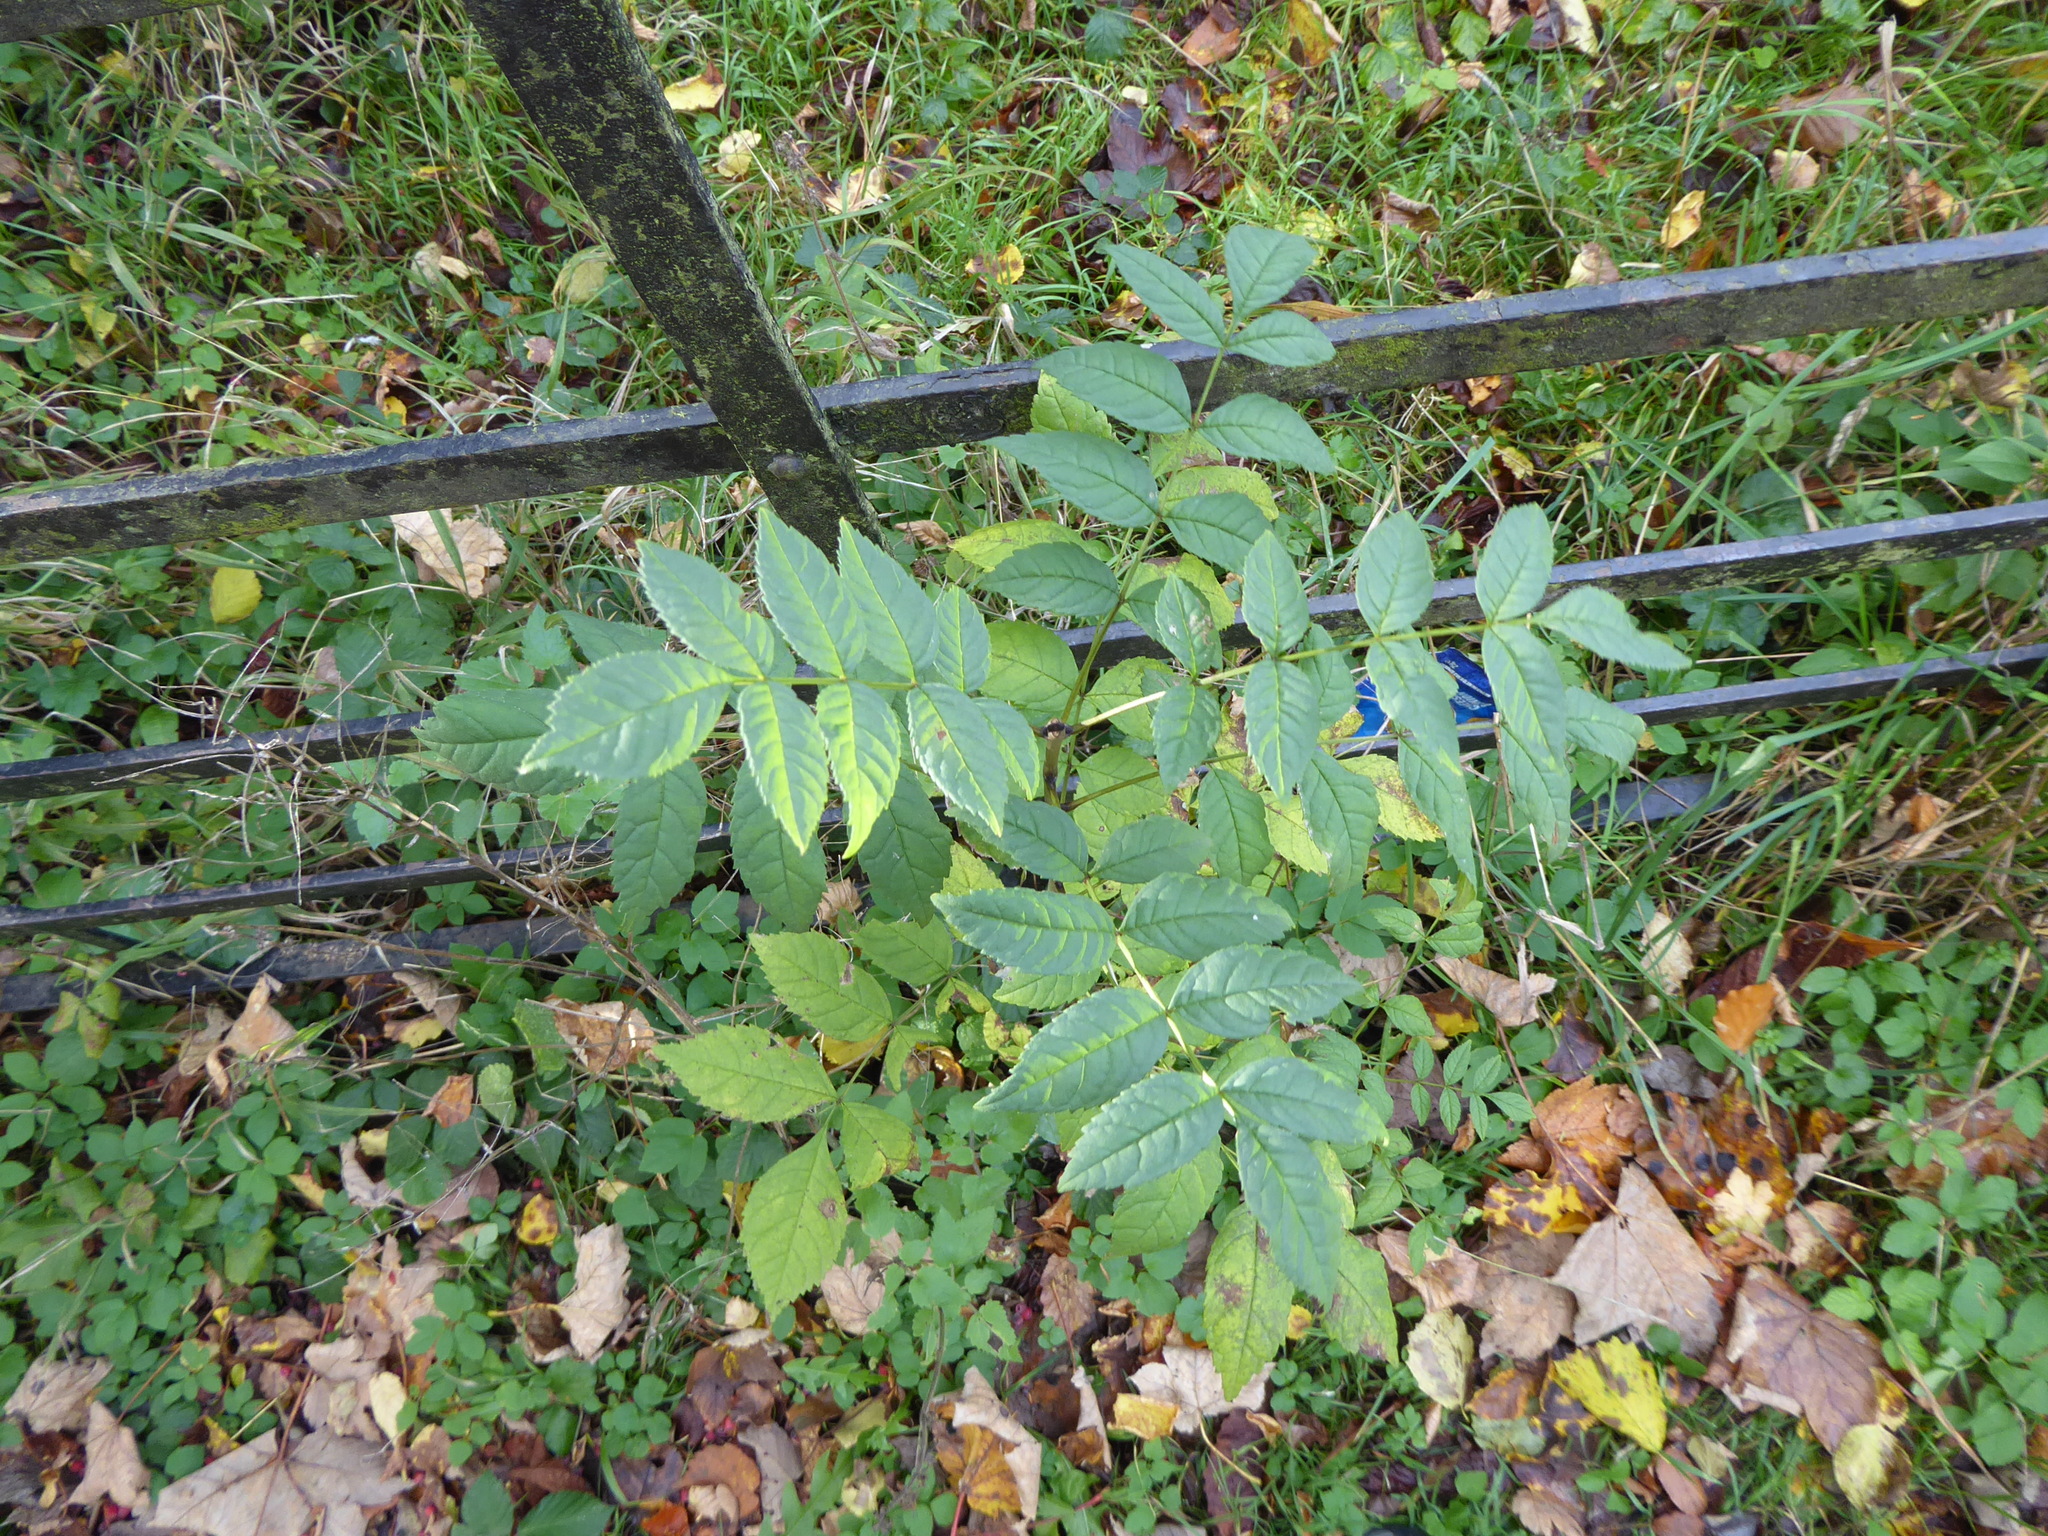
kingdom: Plantae
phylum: Tracheophyta
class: Magnoliopsida
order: Lamiales
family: Oleaceae
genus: Fraxinus
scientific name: Fraxinus excelsior
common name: European ash
